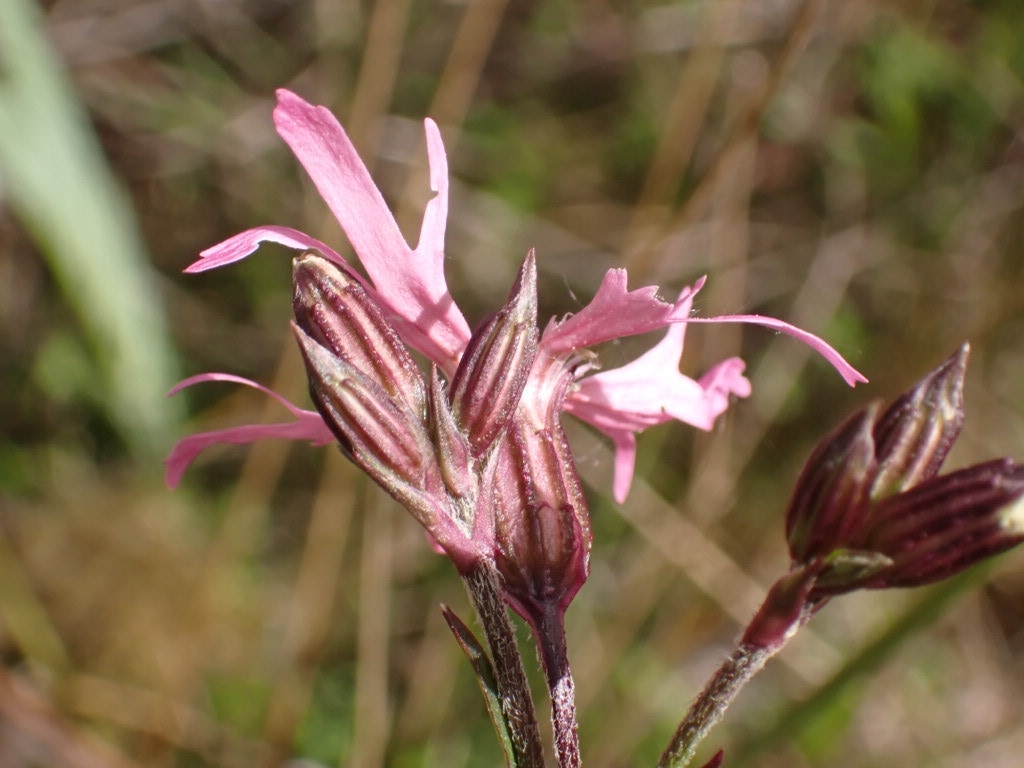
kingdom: Plantae
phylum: Tracheophyta
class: Magnoliopsida
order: Caryophyllales
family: Caryophyllaceae
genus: Silene
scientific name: Silene flos-cuculi
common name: Ragged-robin
